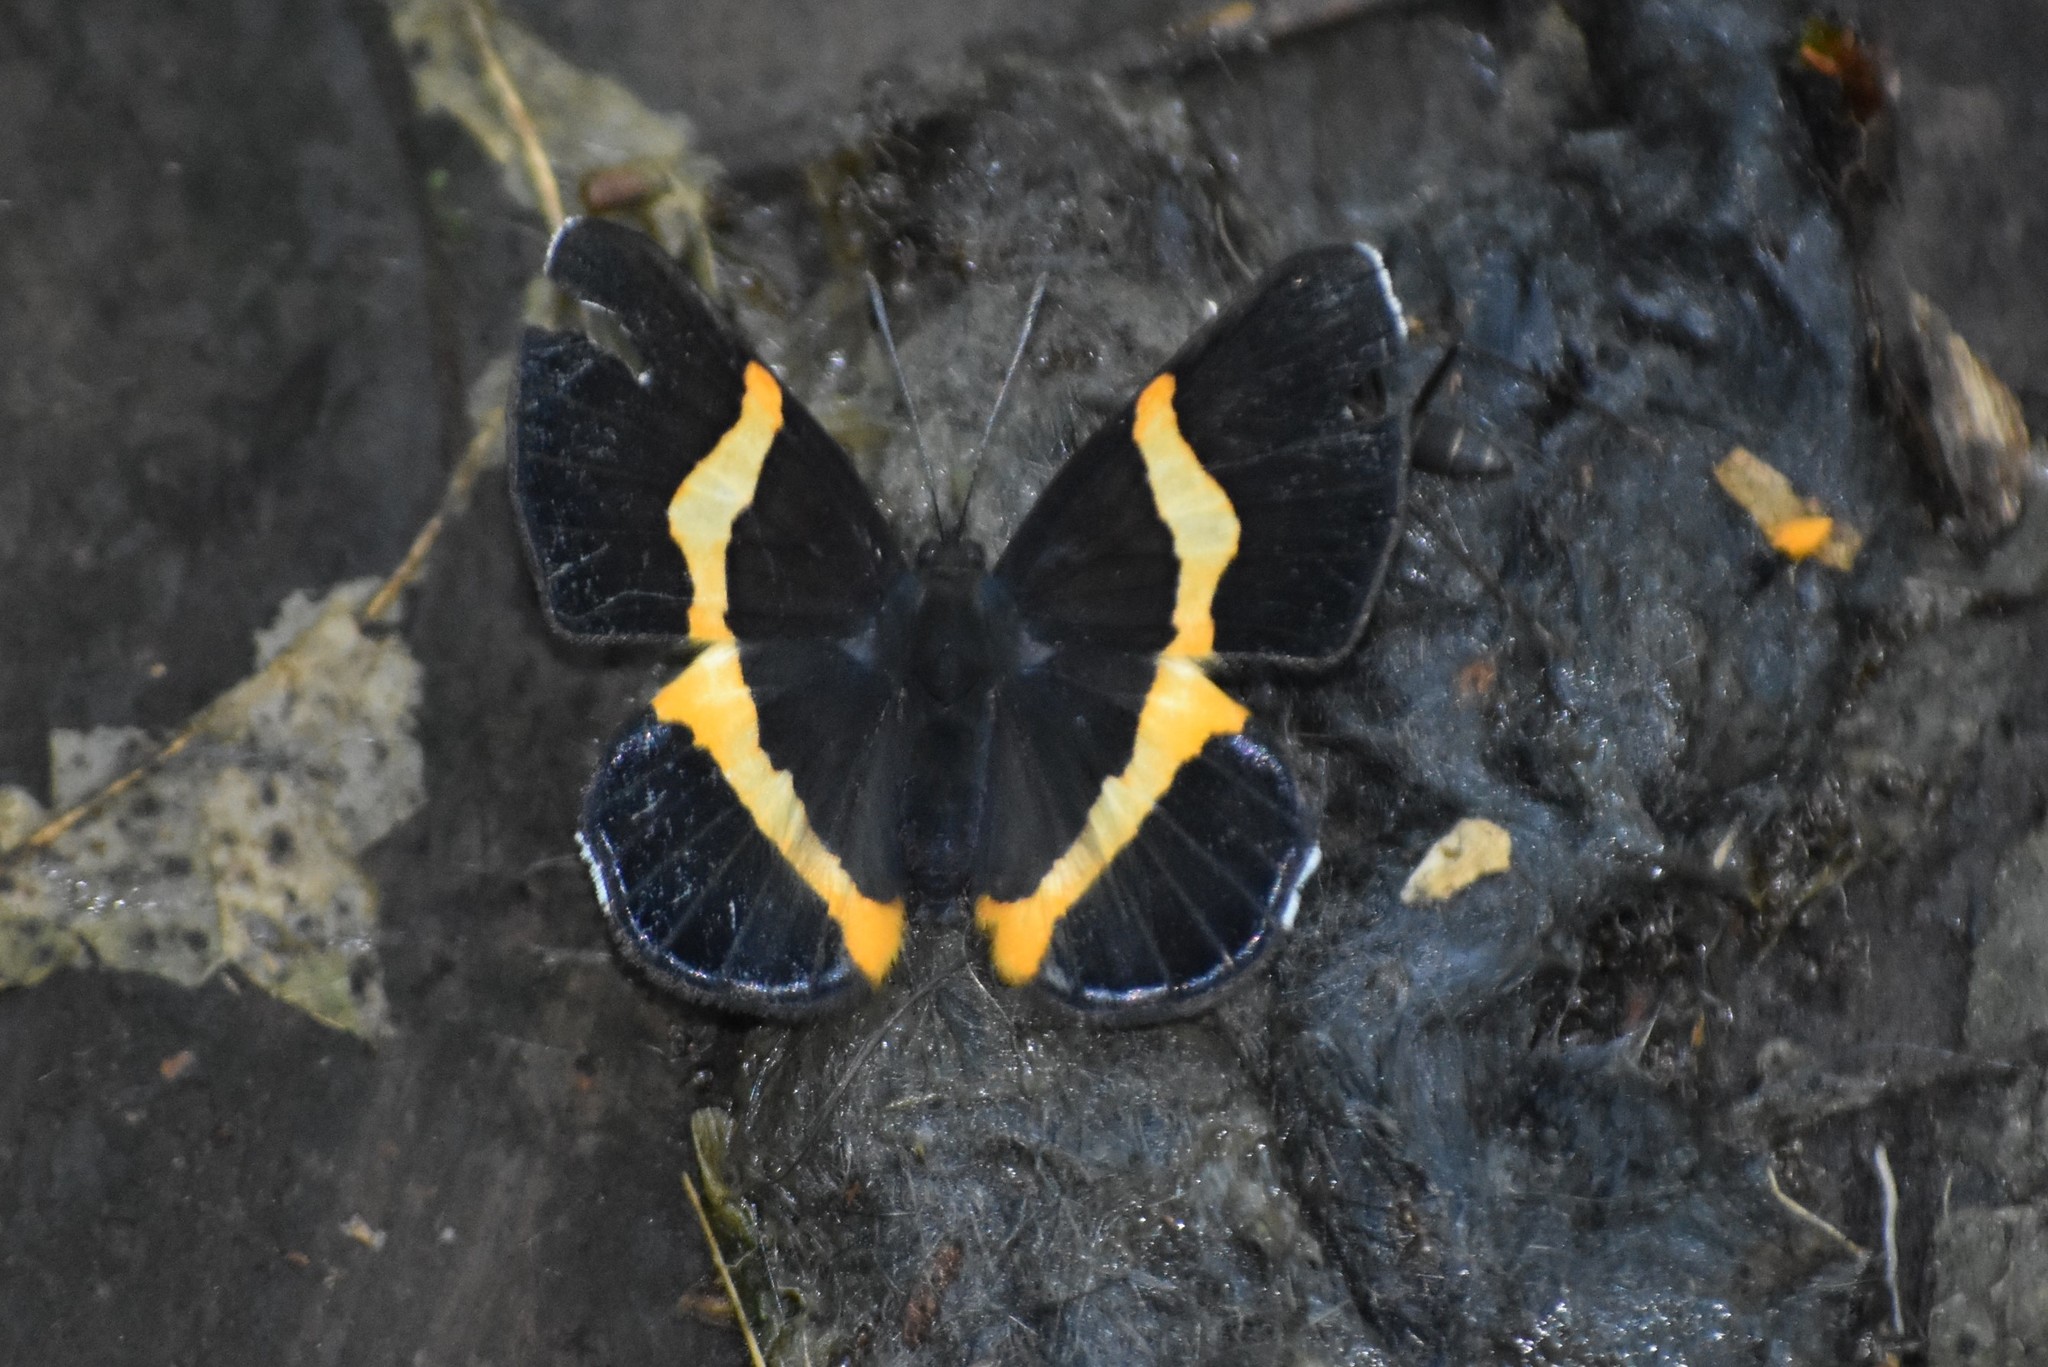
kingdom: Animalia
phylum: Arthropoda
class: Insecta
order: Lepidoptera
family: Riodinidae
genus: Notheme
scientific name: Notheme eumeus
